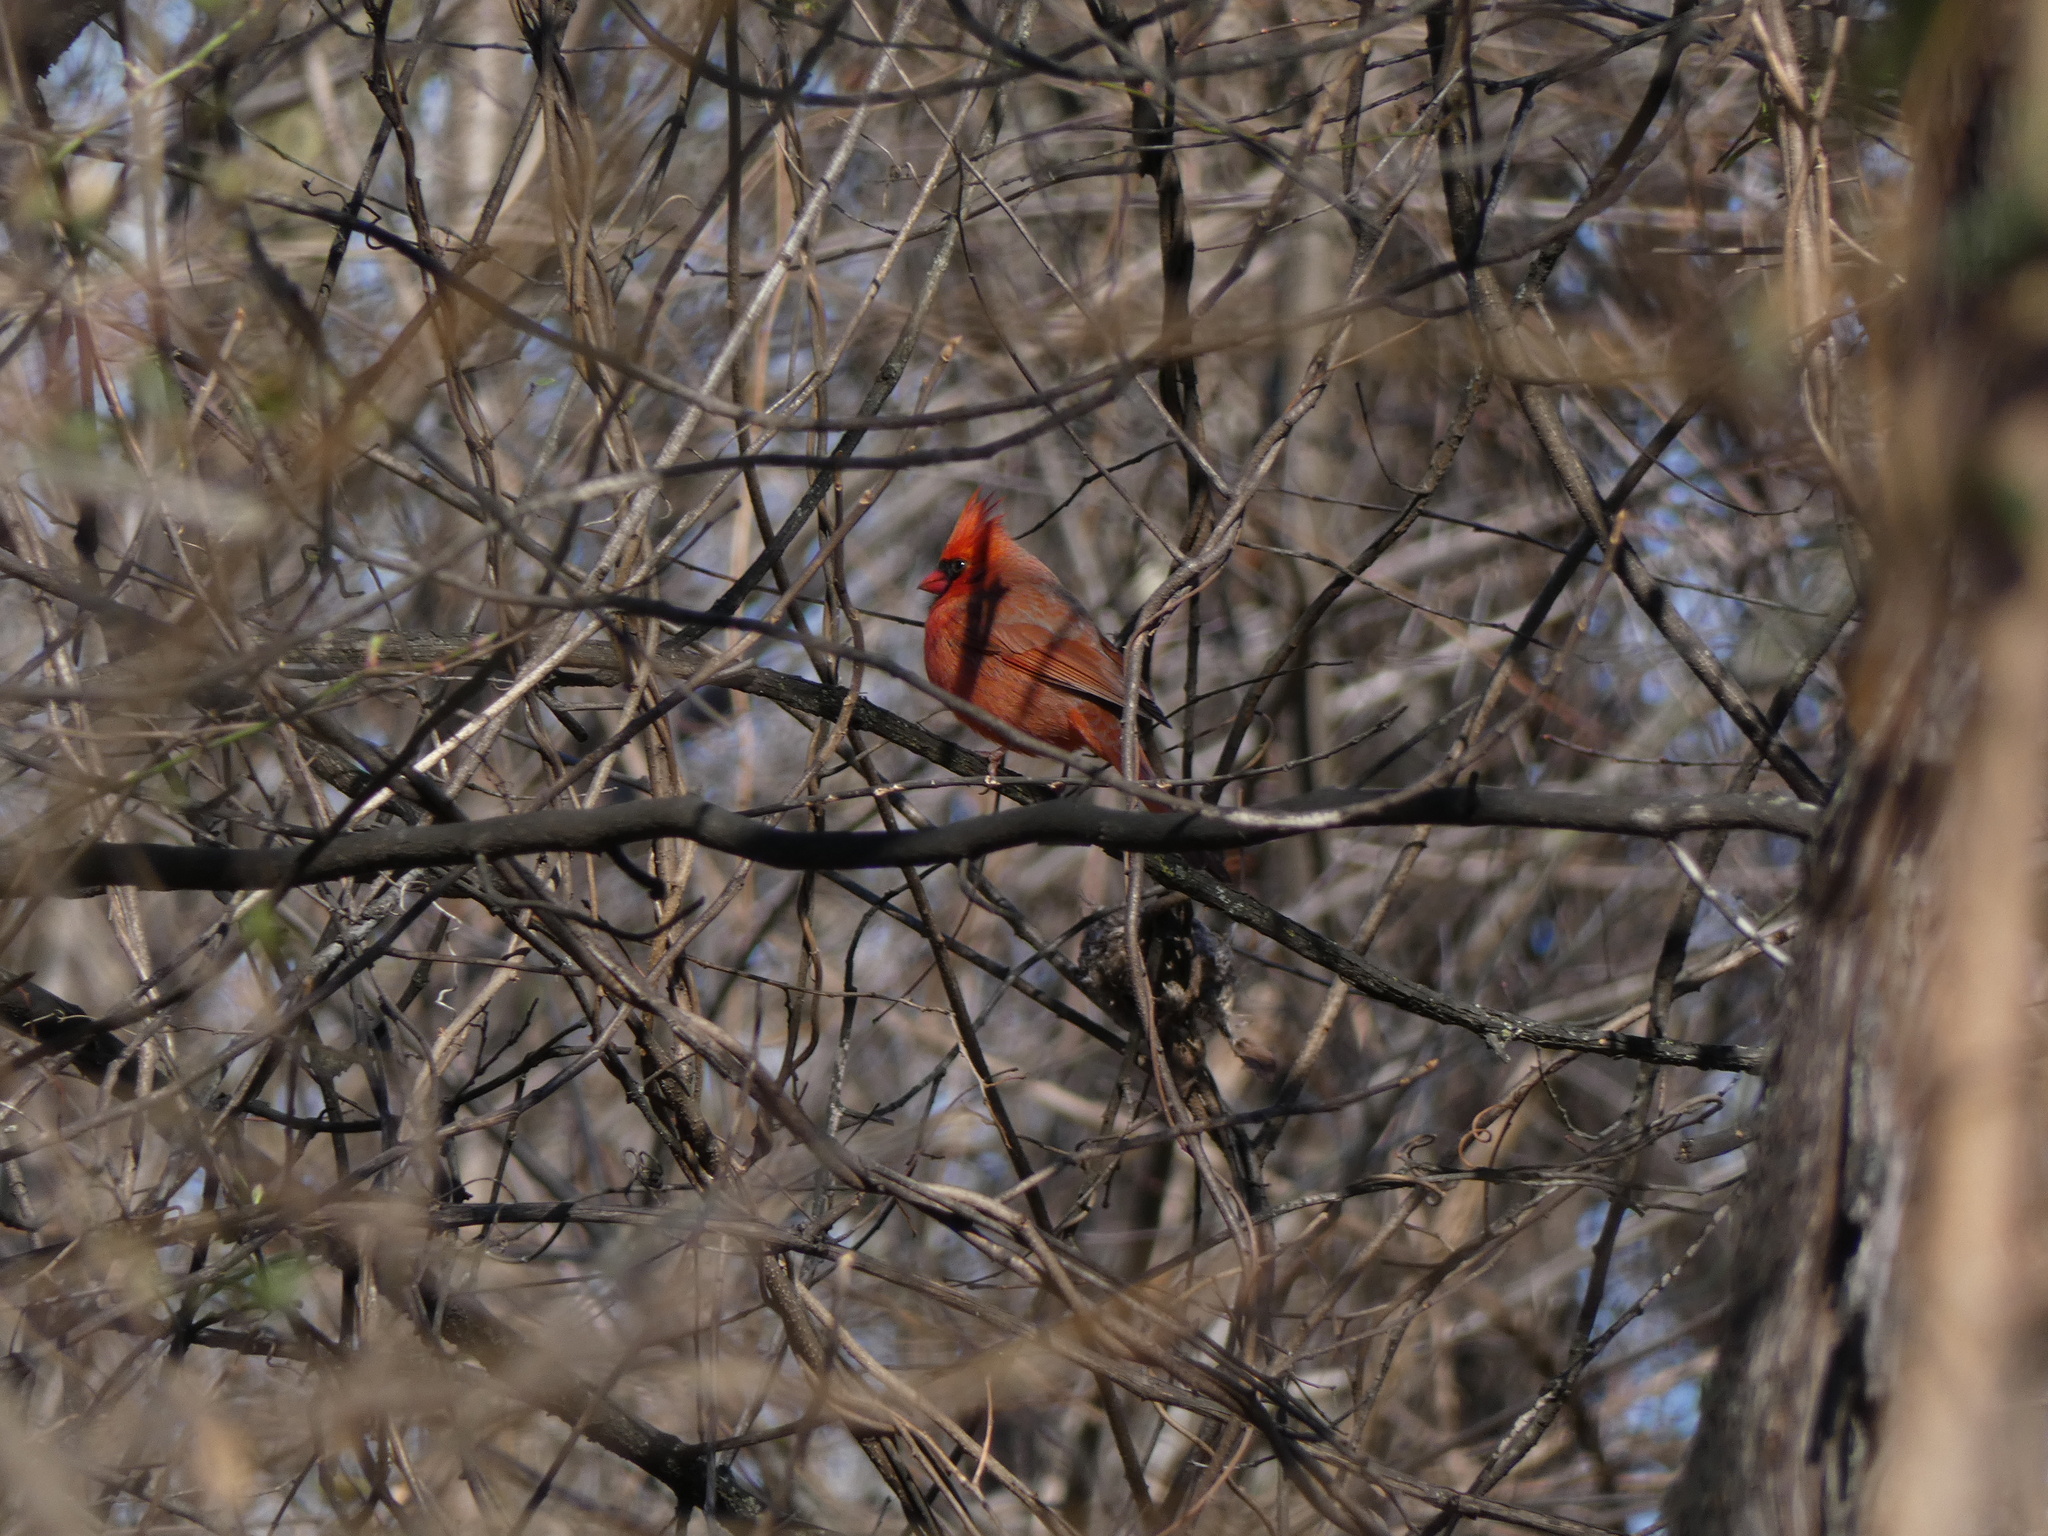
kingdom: Animalia
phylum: Chordata
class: Aves
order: Passeriformes
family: Cardinalidae
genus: Cardinalis
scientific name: Cardinalis cardinalis
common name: Northern cardinal
